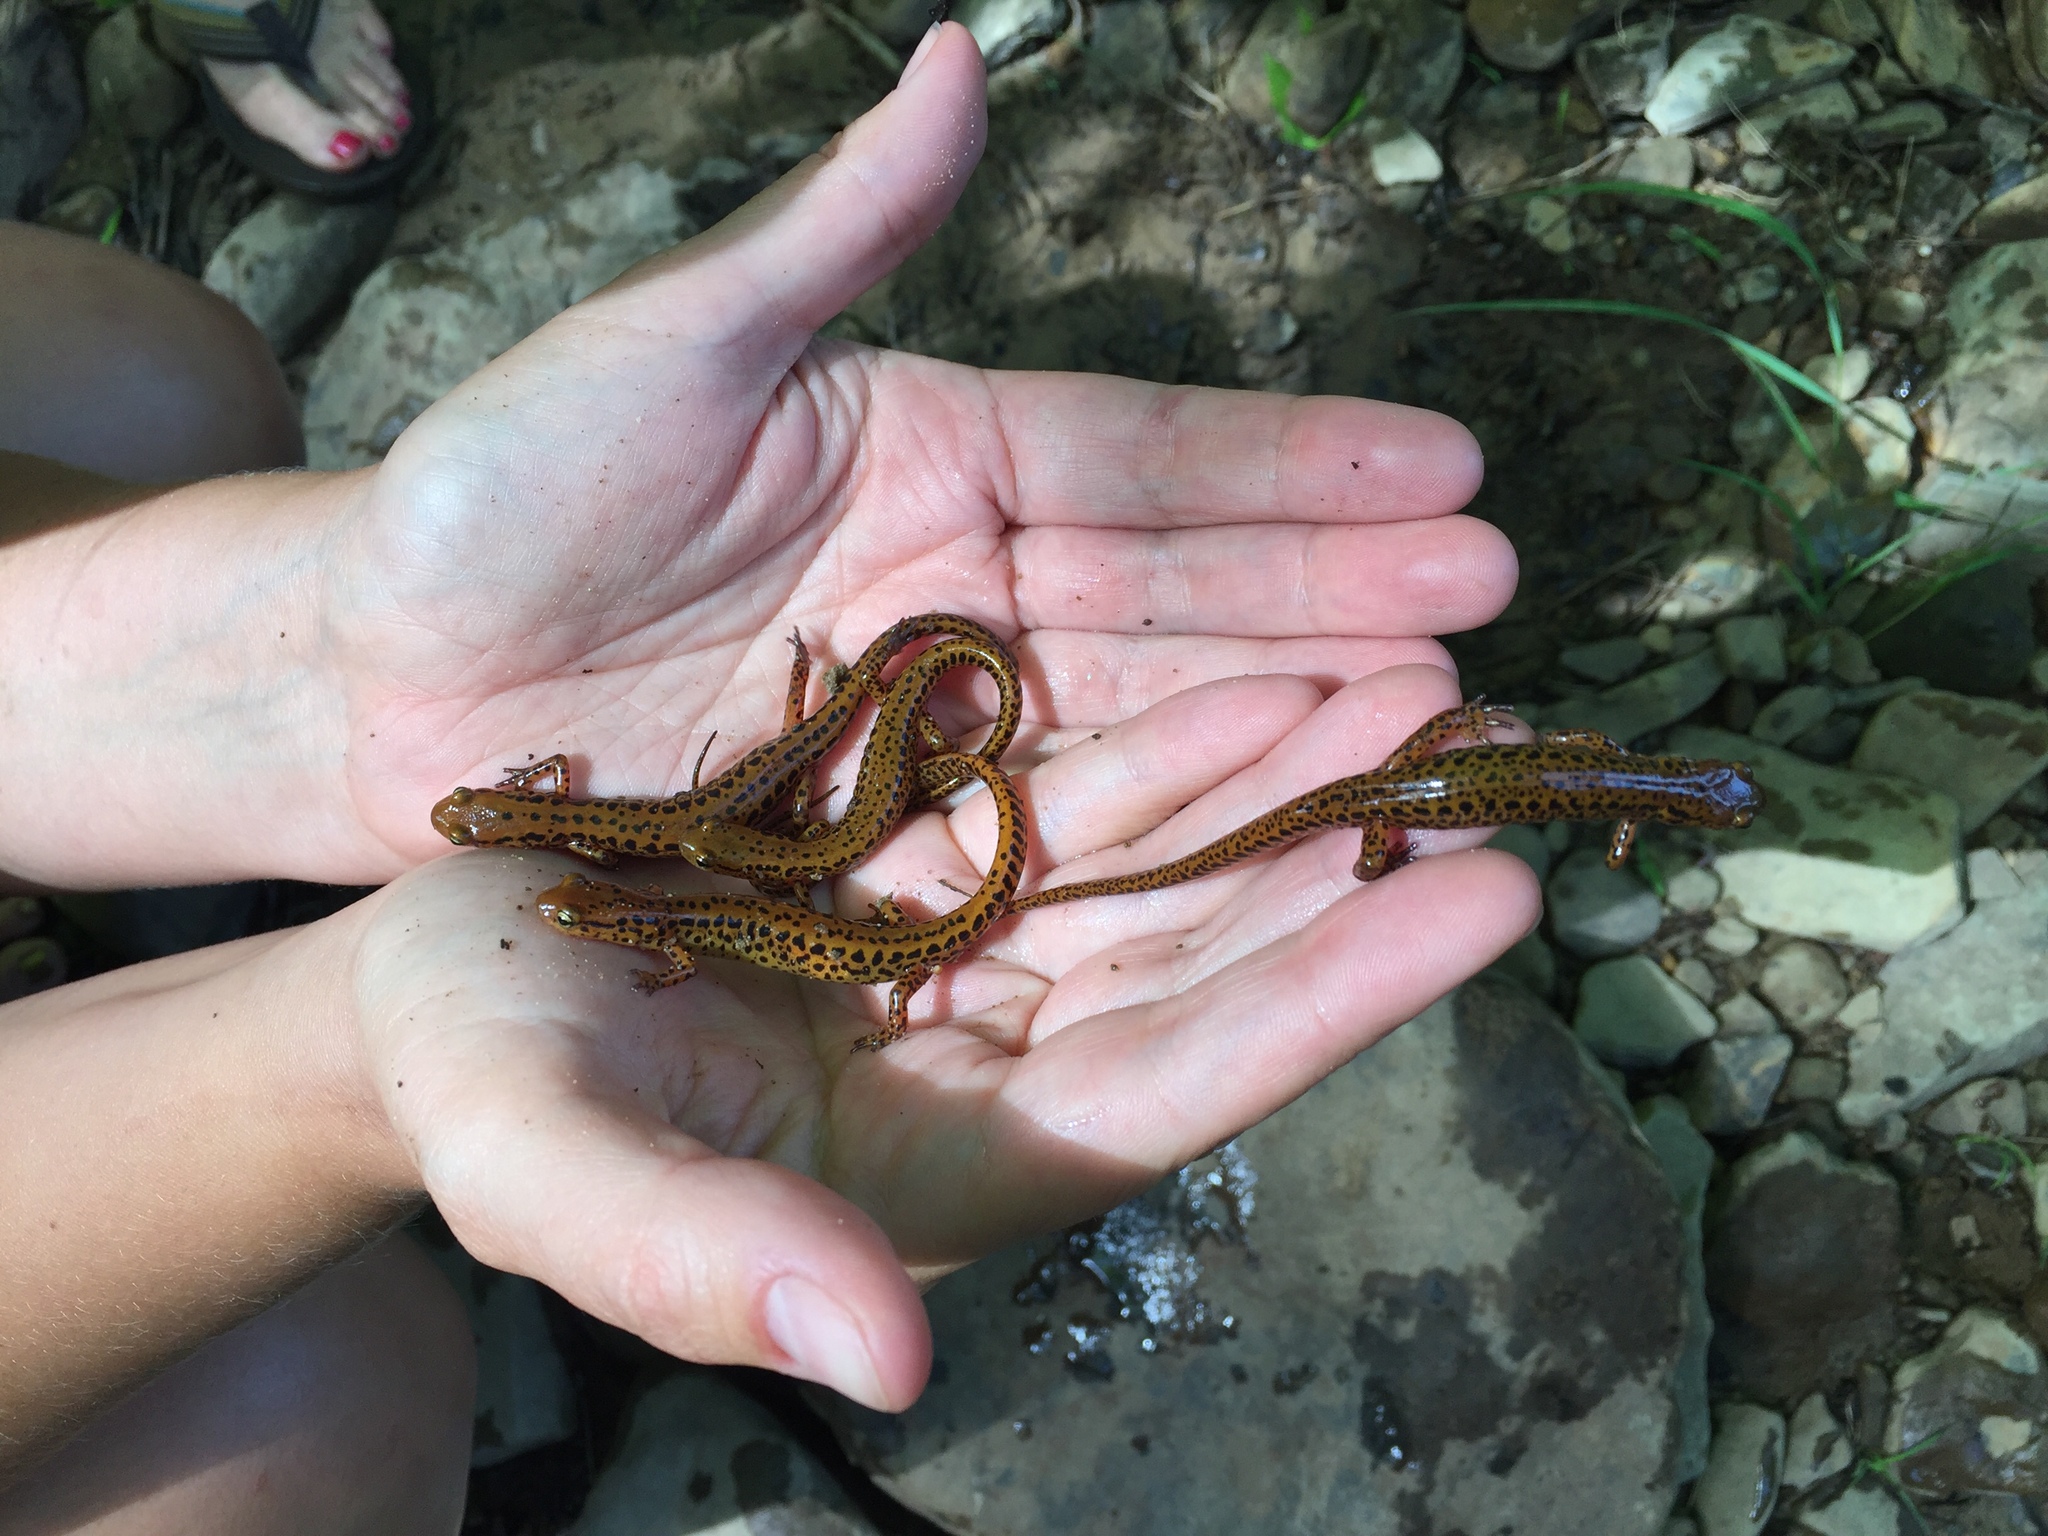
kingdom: Animalia
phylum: Chordata
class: Amphibia
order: Caudata
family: Plethodontidae
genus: Eurycea
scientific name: Eurycea longicauda
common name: Long-tailed salamander
